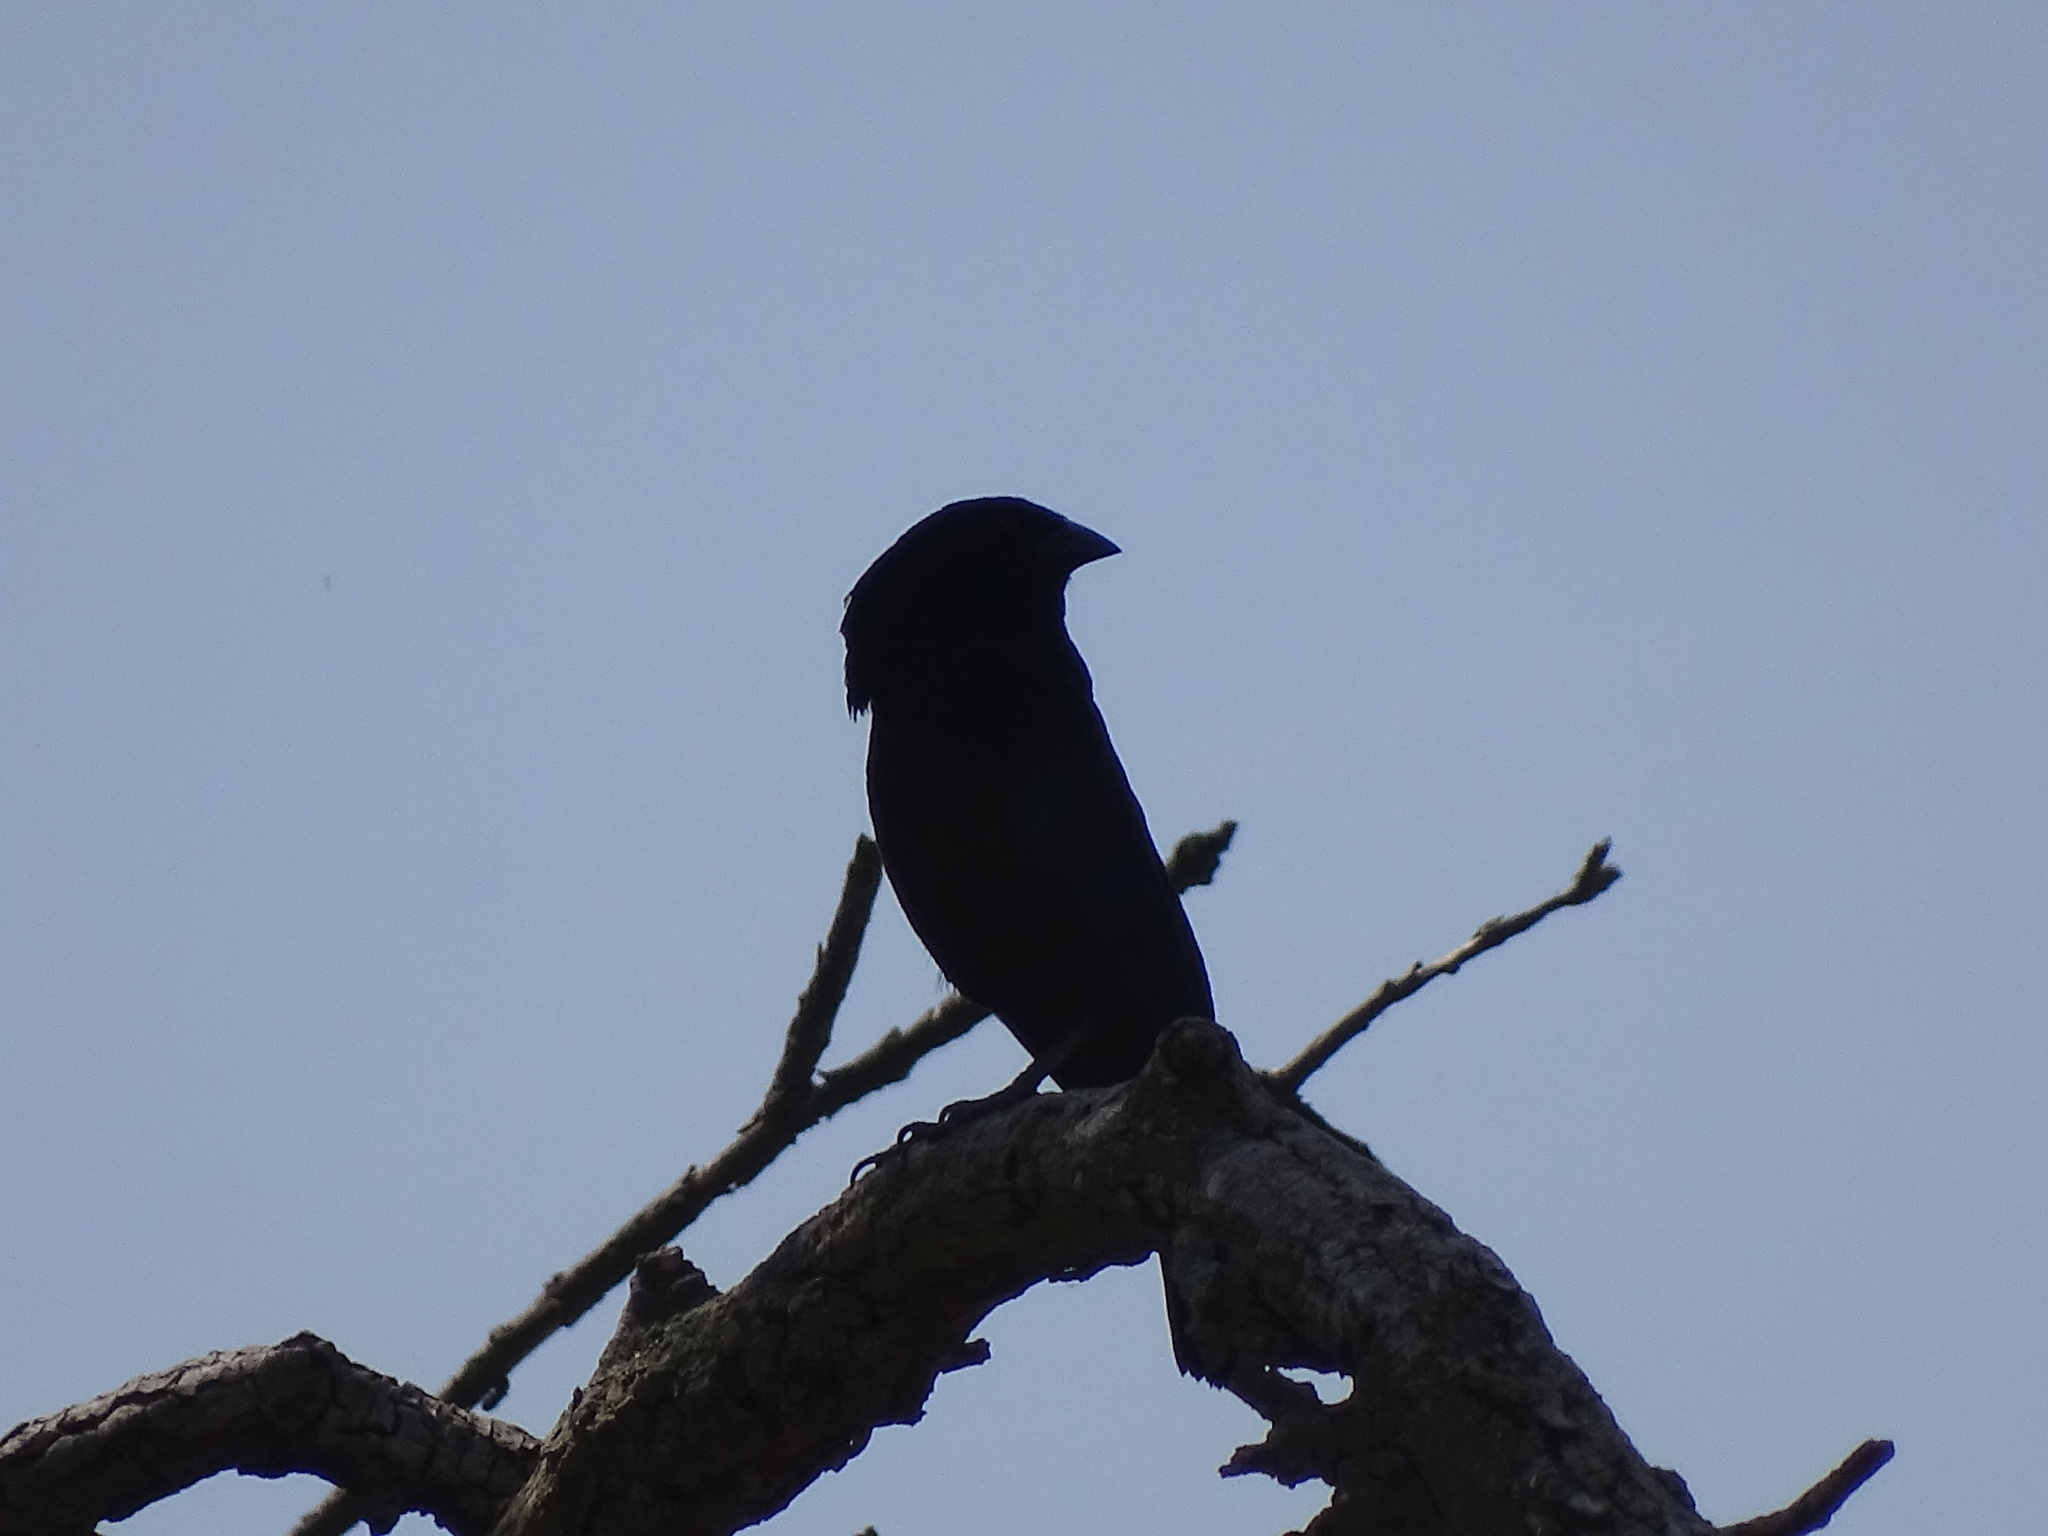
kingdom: Animalia
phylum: Chordata
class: Aves
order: Passeriformes
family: Icteridae
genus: Molothrus
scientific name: Molothrus aeneus
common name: Bronzed cowbird
